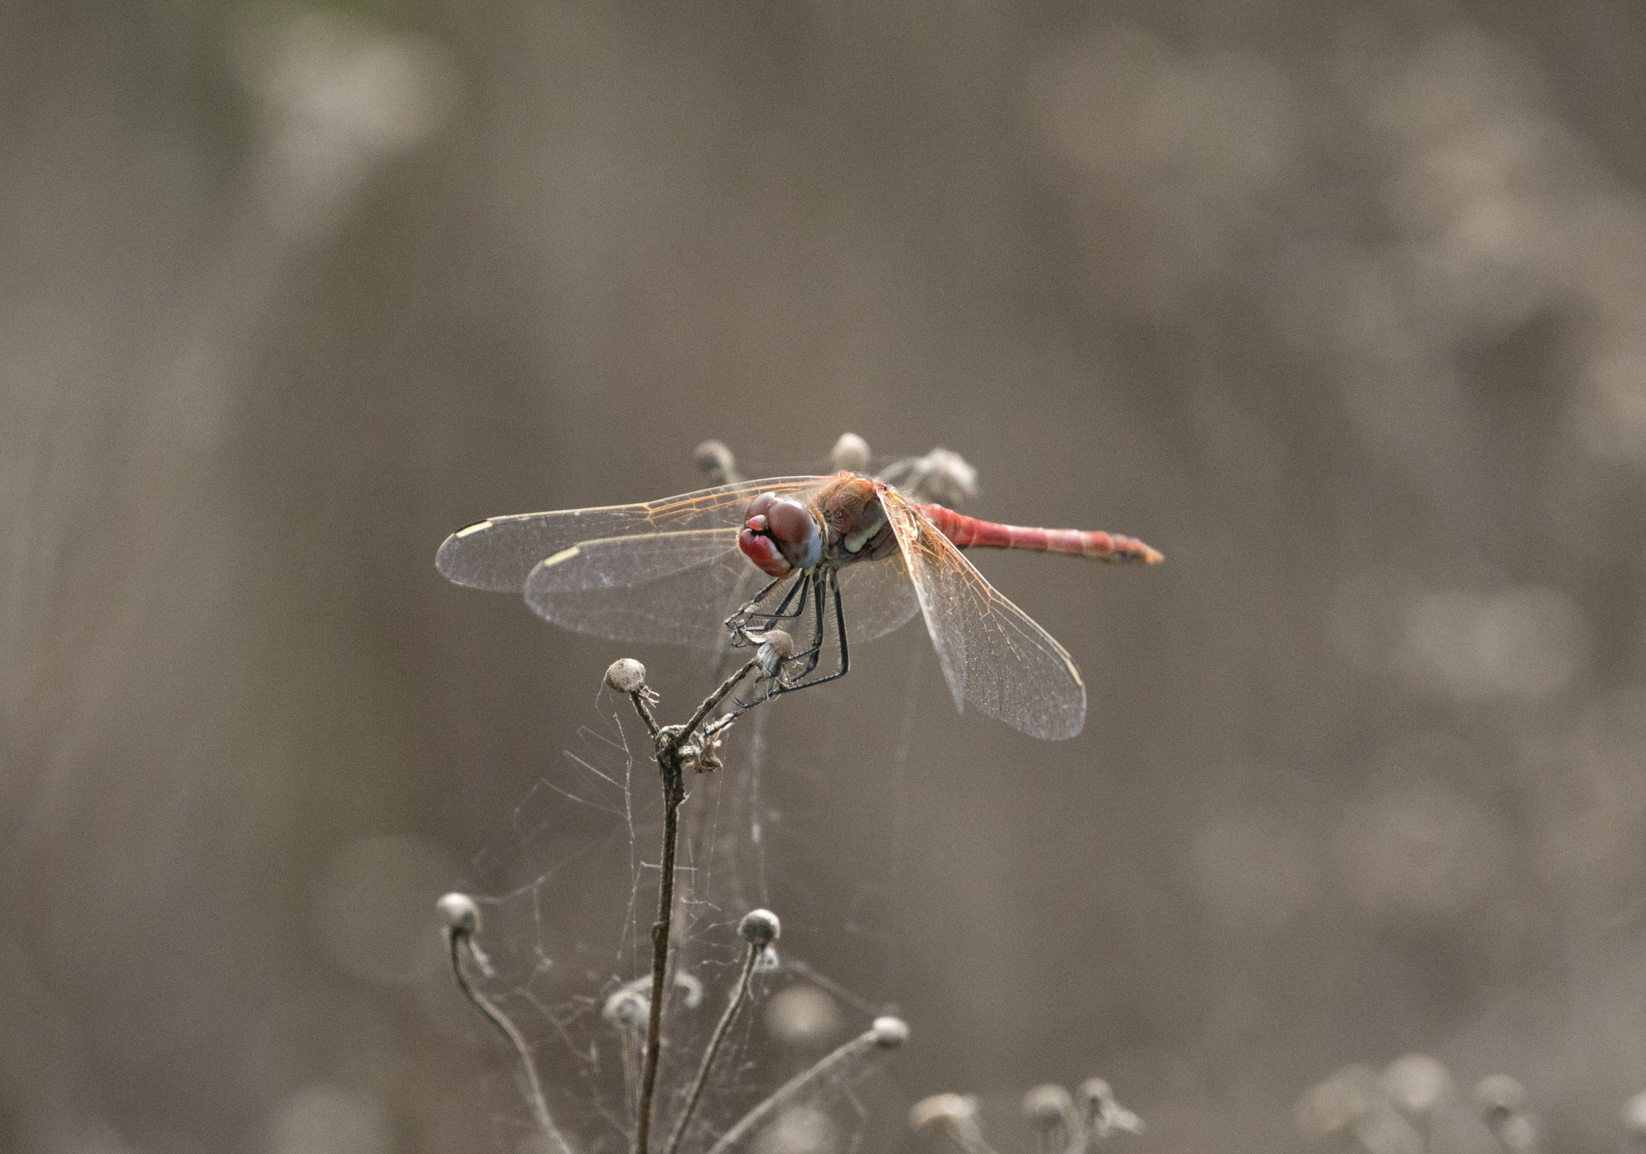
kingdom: Animalia
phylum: Arthropoda
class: Insecta
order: Odonata
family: Libellulidae
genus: Sympetrum
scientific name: Sympetrum fonscolombii
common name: Red-veined darter
